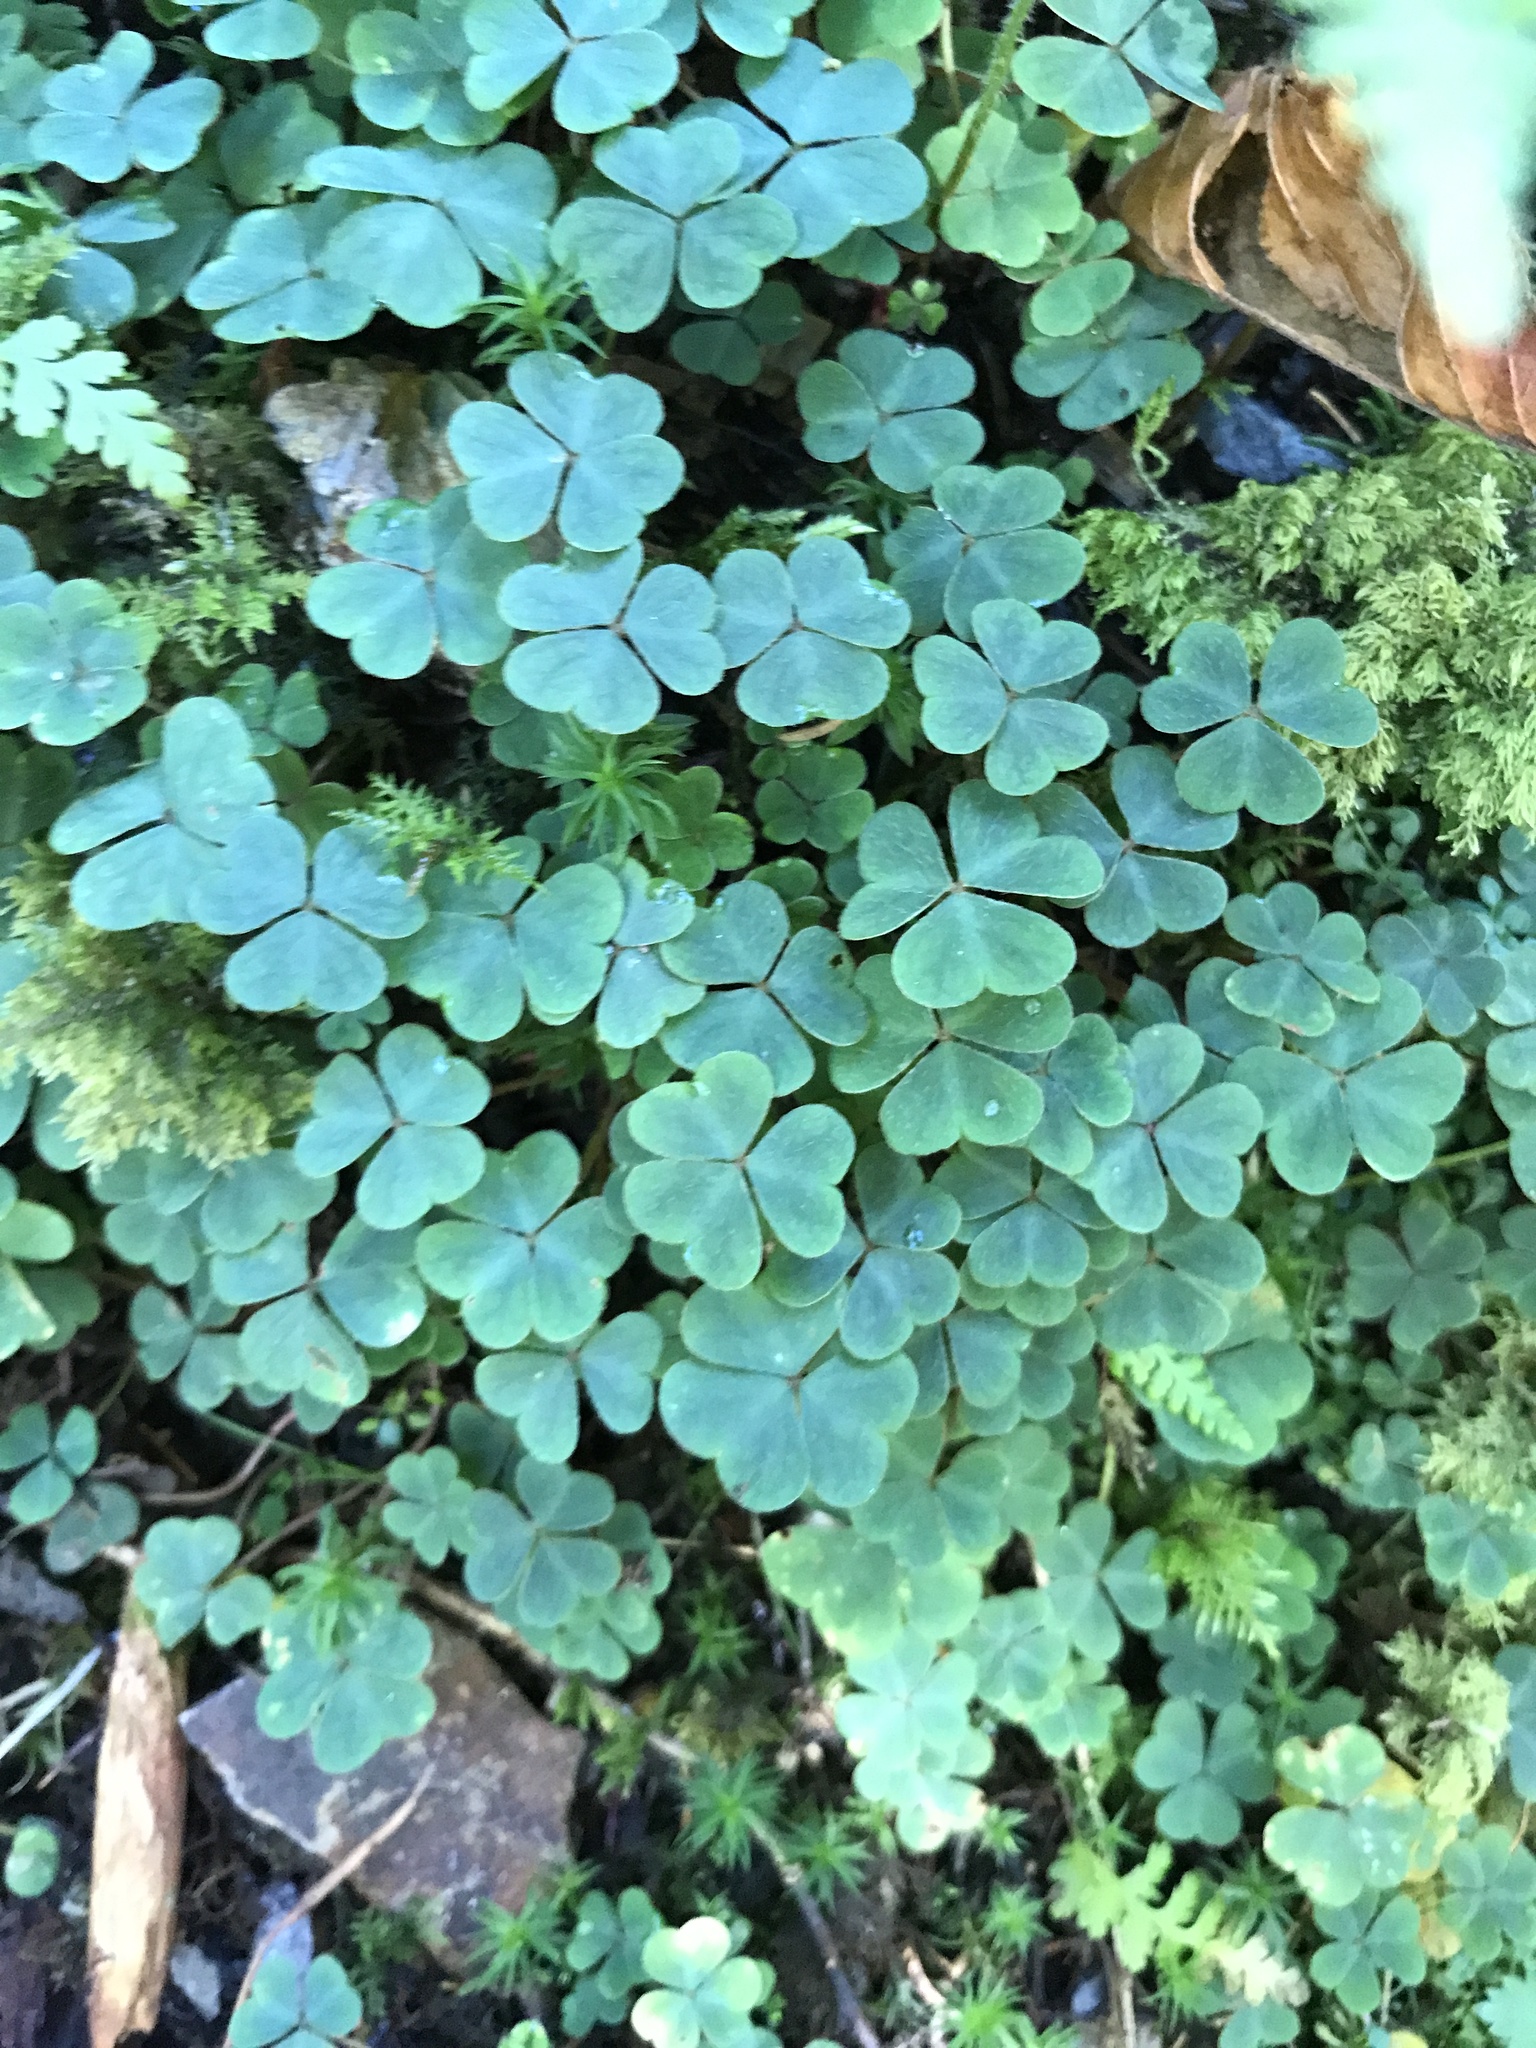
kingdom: Plantae
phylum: Tracheophyta
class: Magnoliopsida
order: Oxalidales
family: Oxalidaceae
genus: Oxalis
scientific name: Oxalis montana
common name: American wood-sorrel
